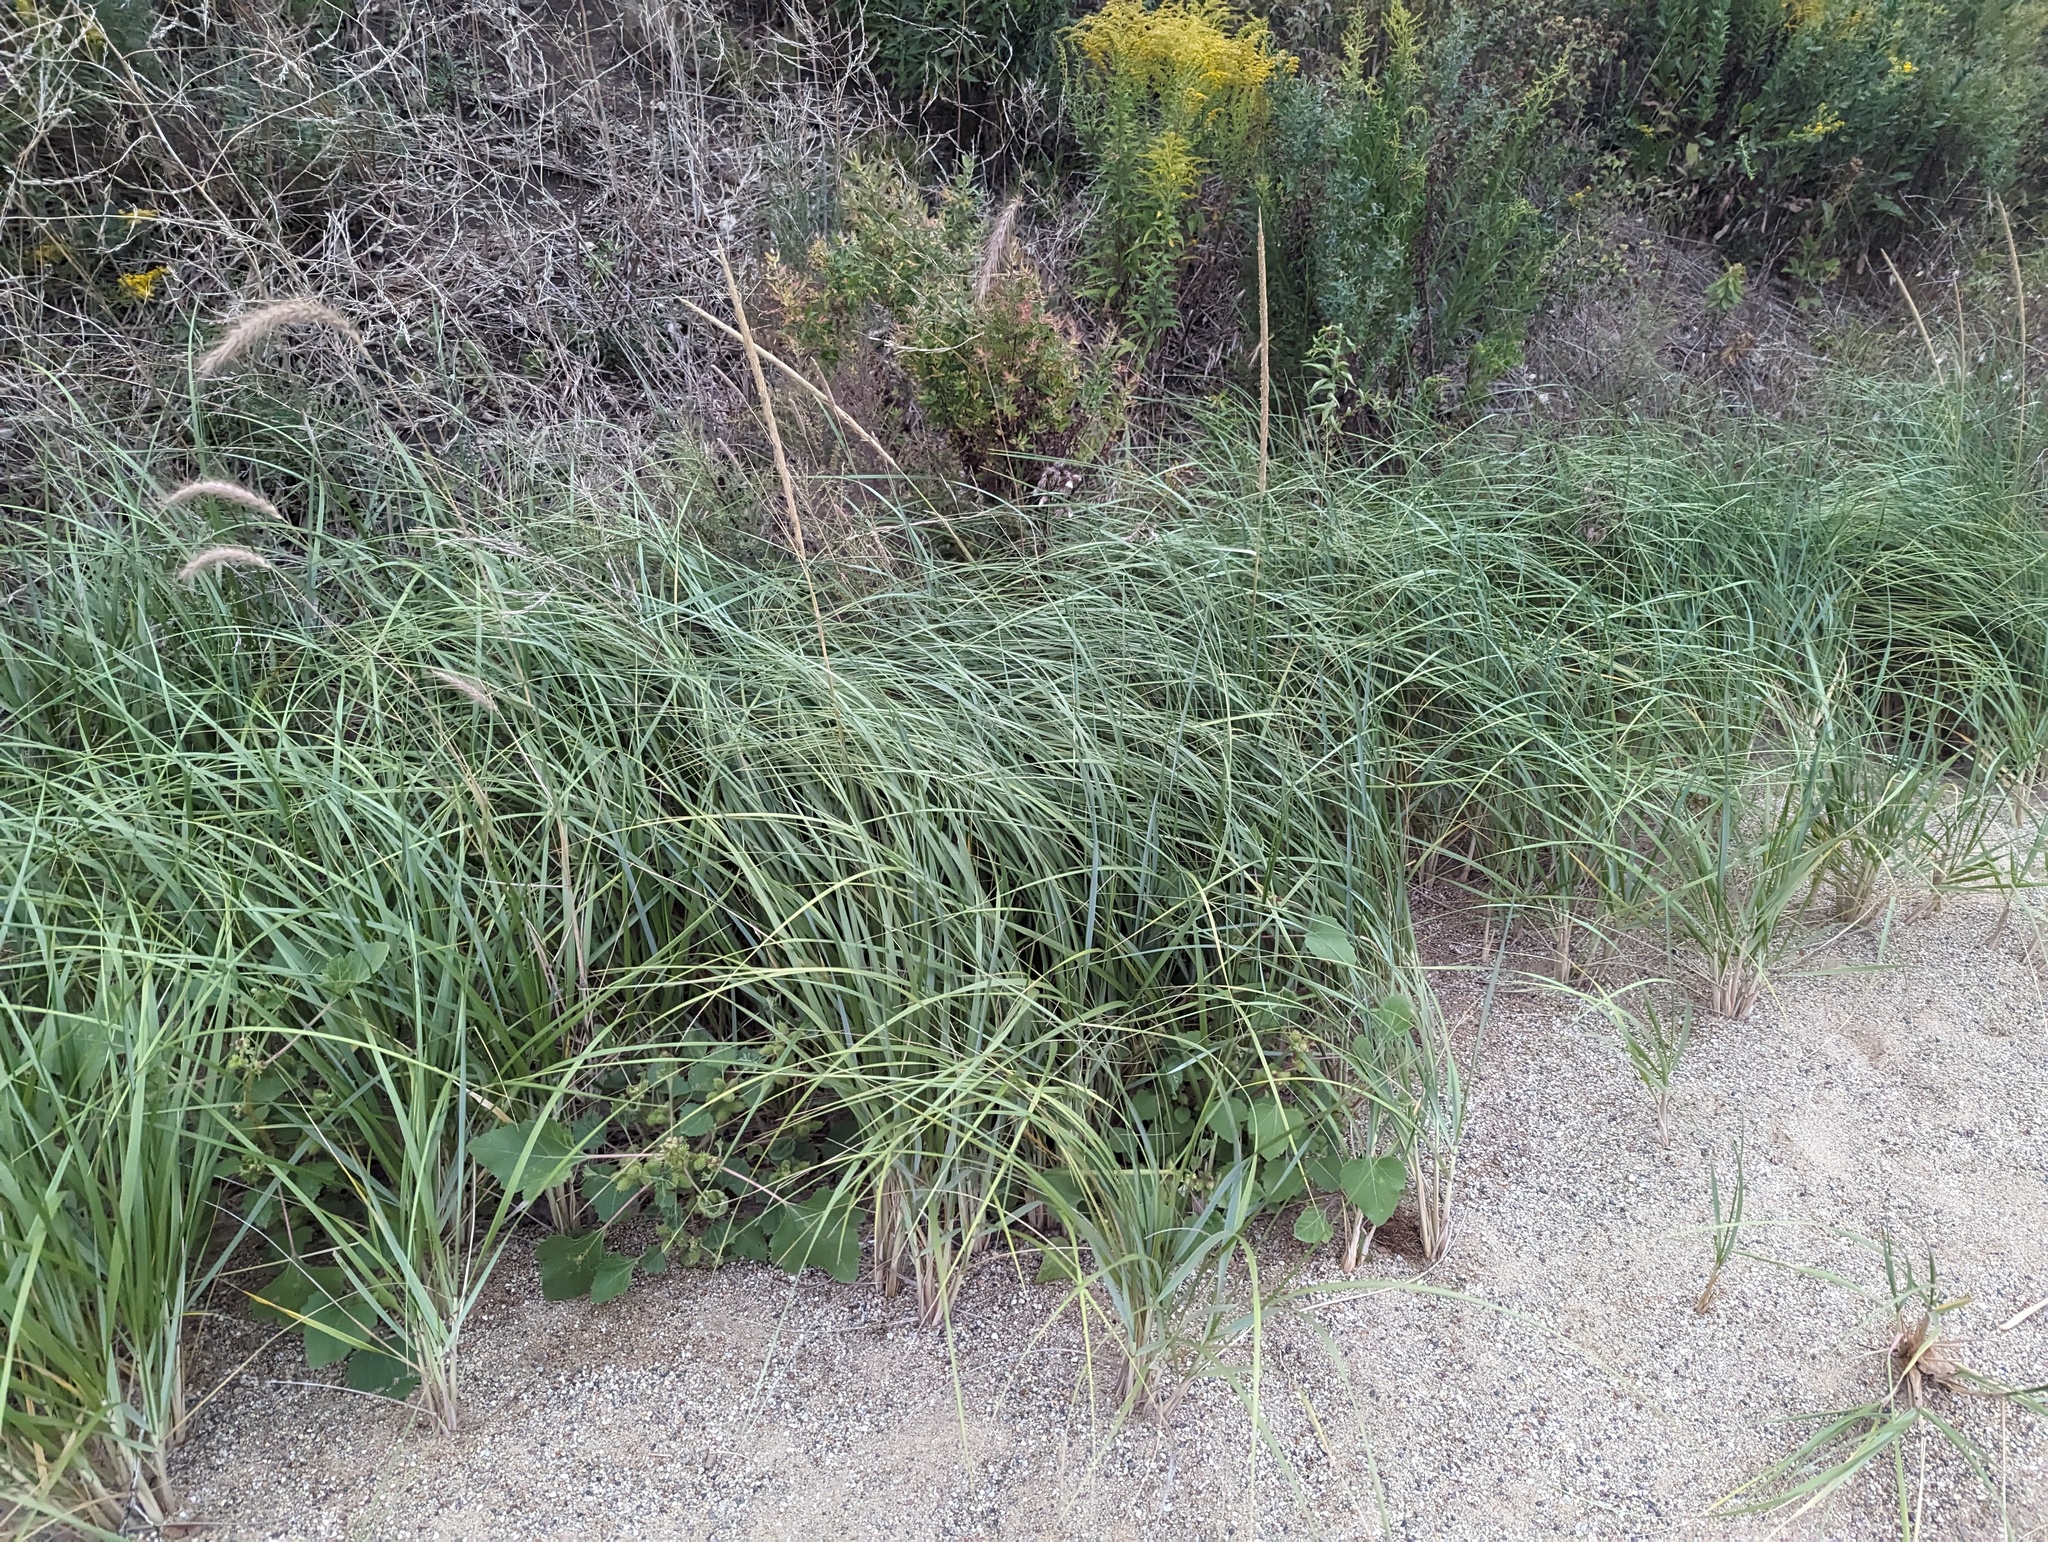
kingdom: Plantae
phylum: Tracheophyta
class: Liliopsida
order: Poales
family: Poaceae
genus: Calamagrostis
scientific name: Calamagrostis breviligulata
